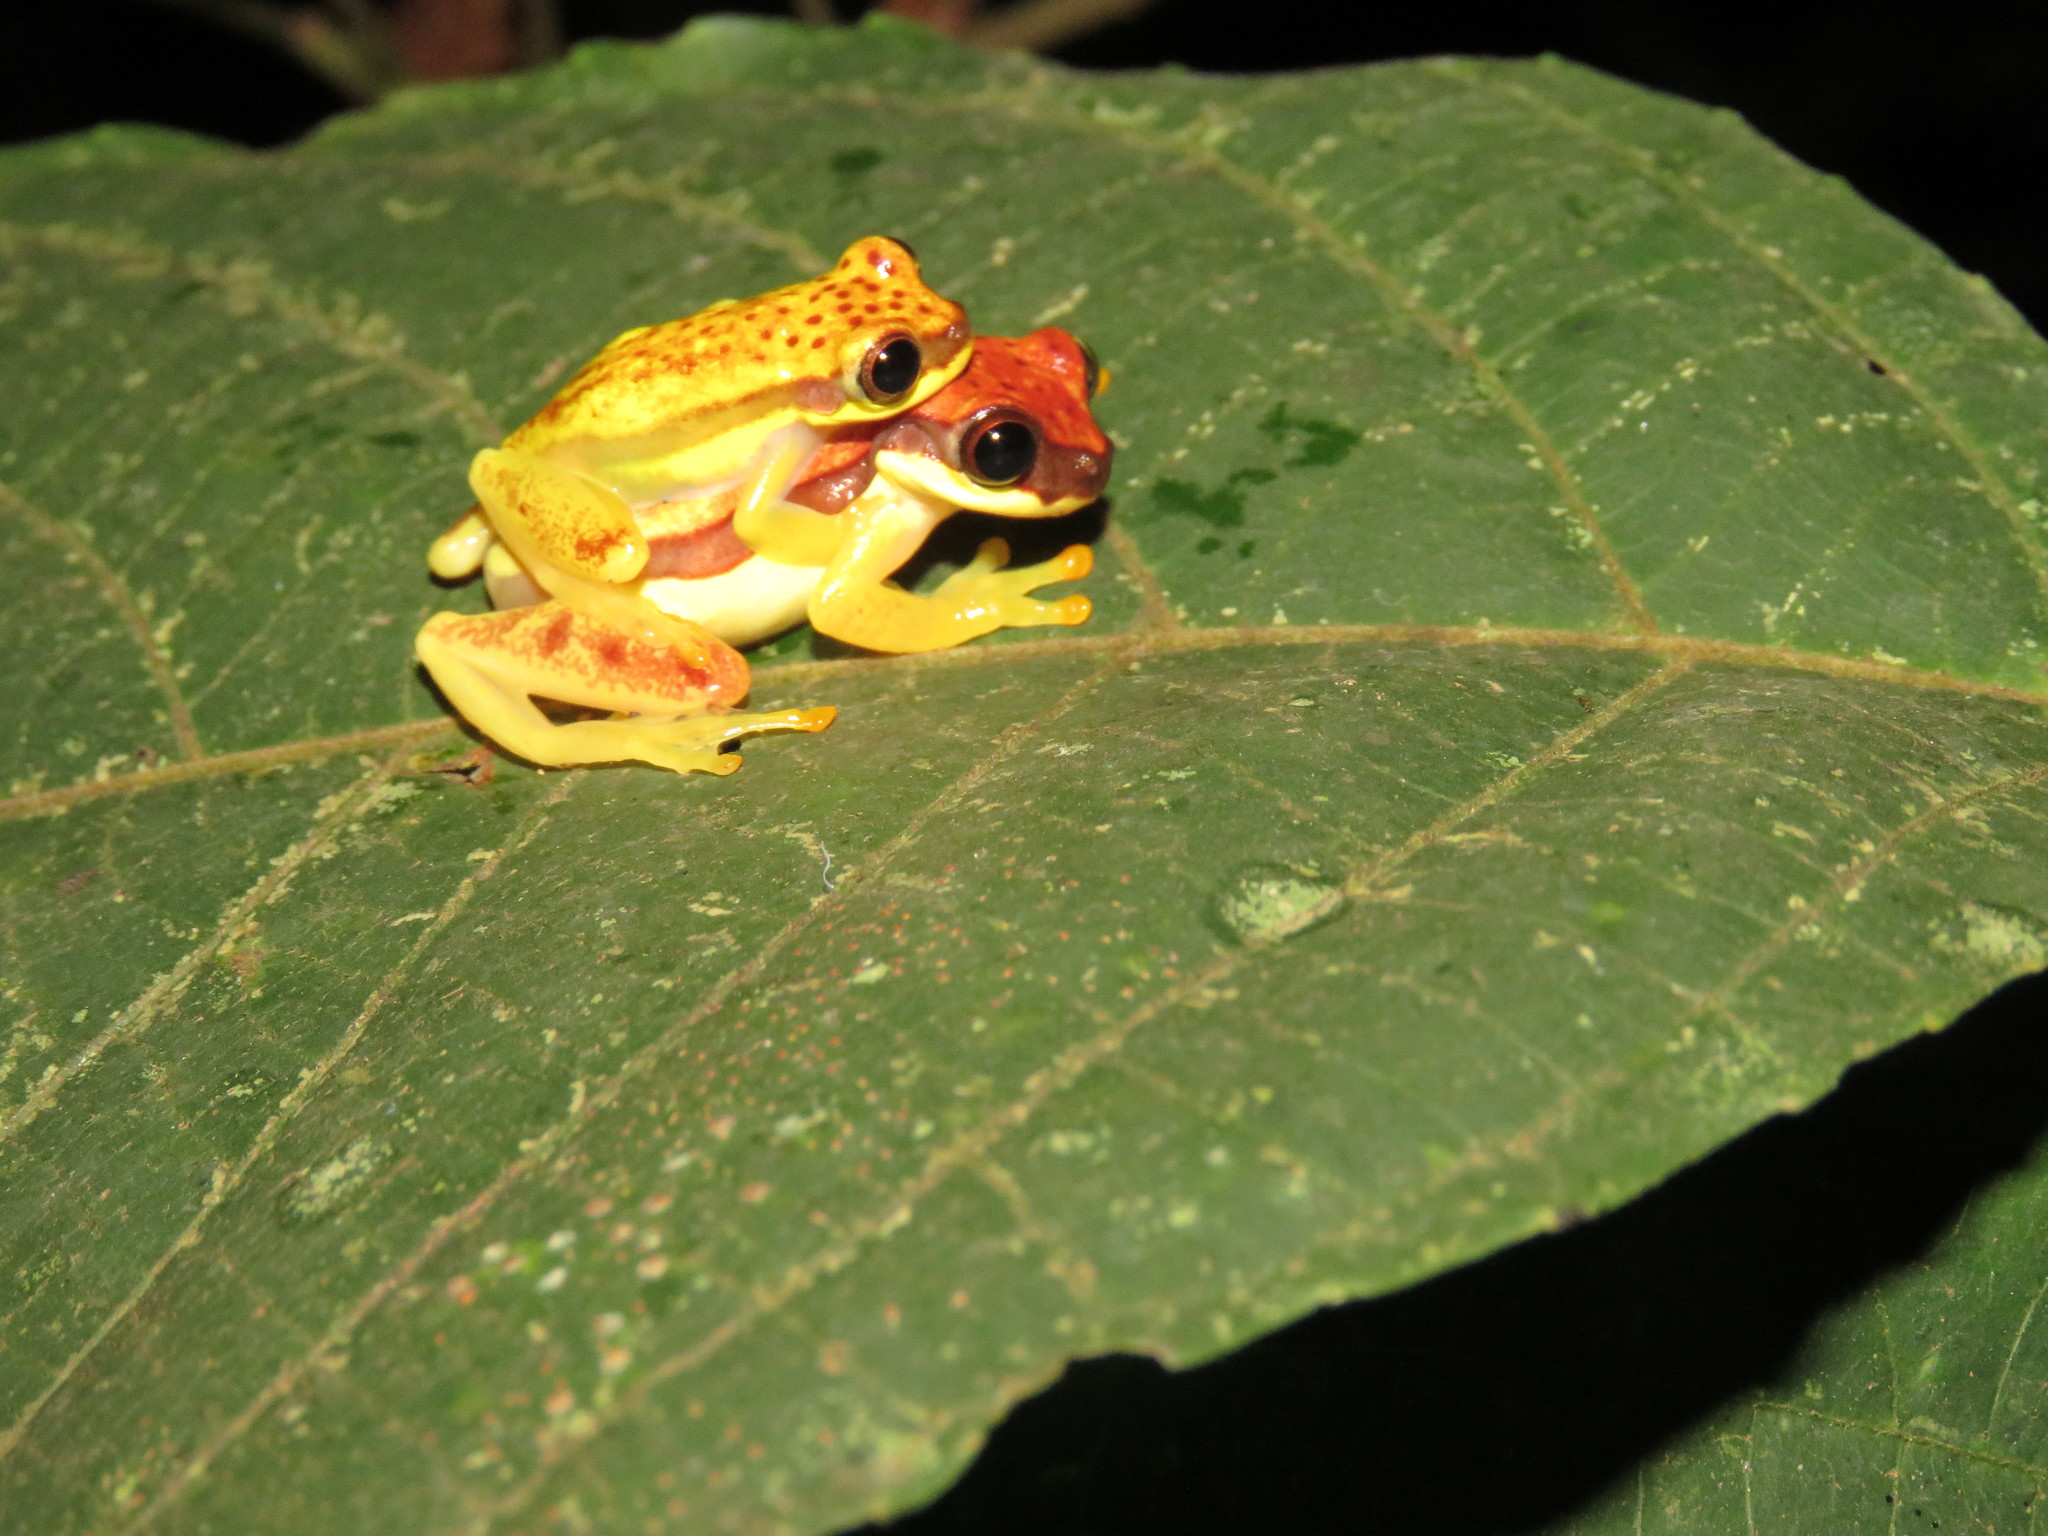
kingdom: Animalia
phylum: Chordata
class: Amphibia
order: Anura
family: Hylidae
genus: Dendropsophus
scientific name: Dendropsophus rhodopeplus
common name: Red-skirted treefrog
